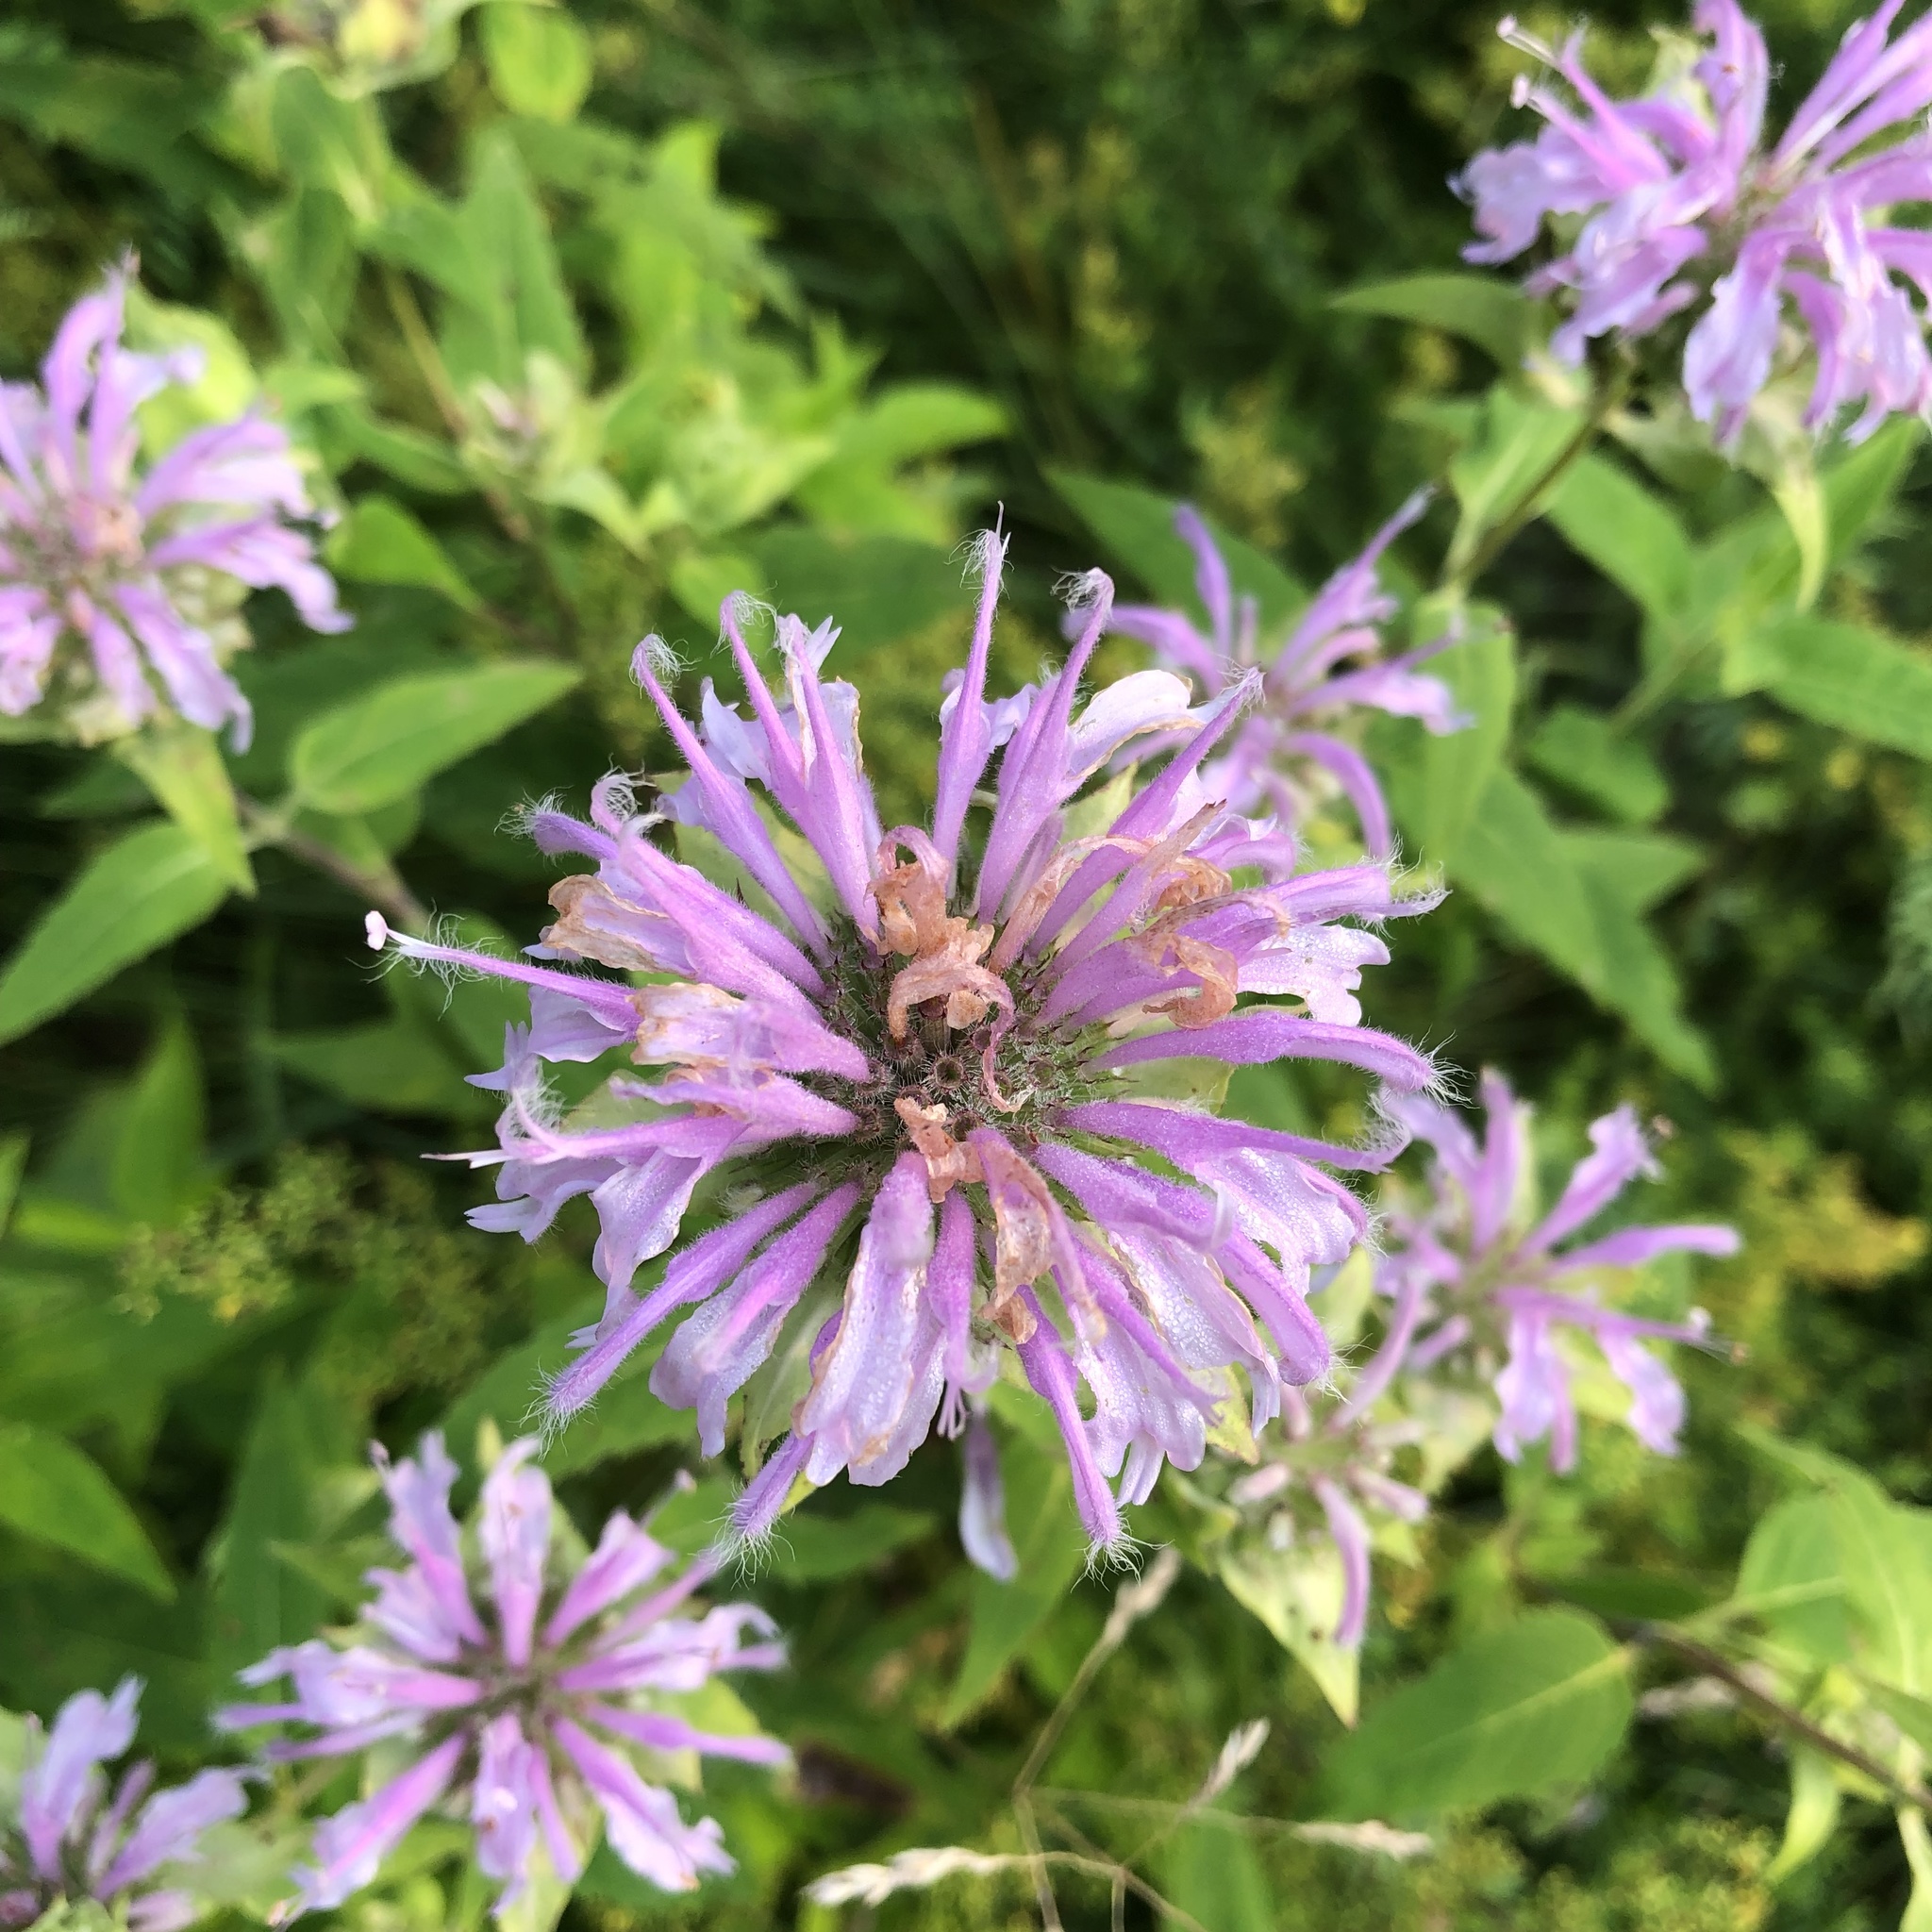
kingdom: Plantae
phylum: Tracheophyta
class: Magnoliopsida
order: Lamiales
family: Lamiaceae
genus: Monarda
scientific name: Monarda fistulosa
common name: Purple beebalm
